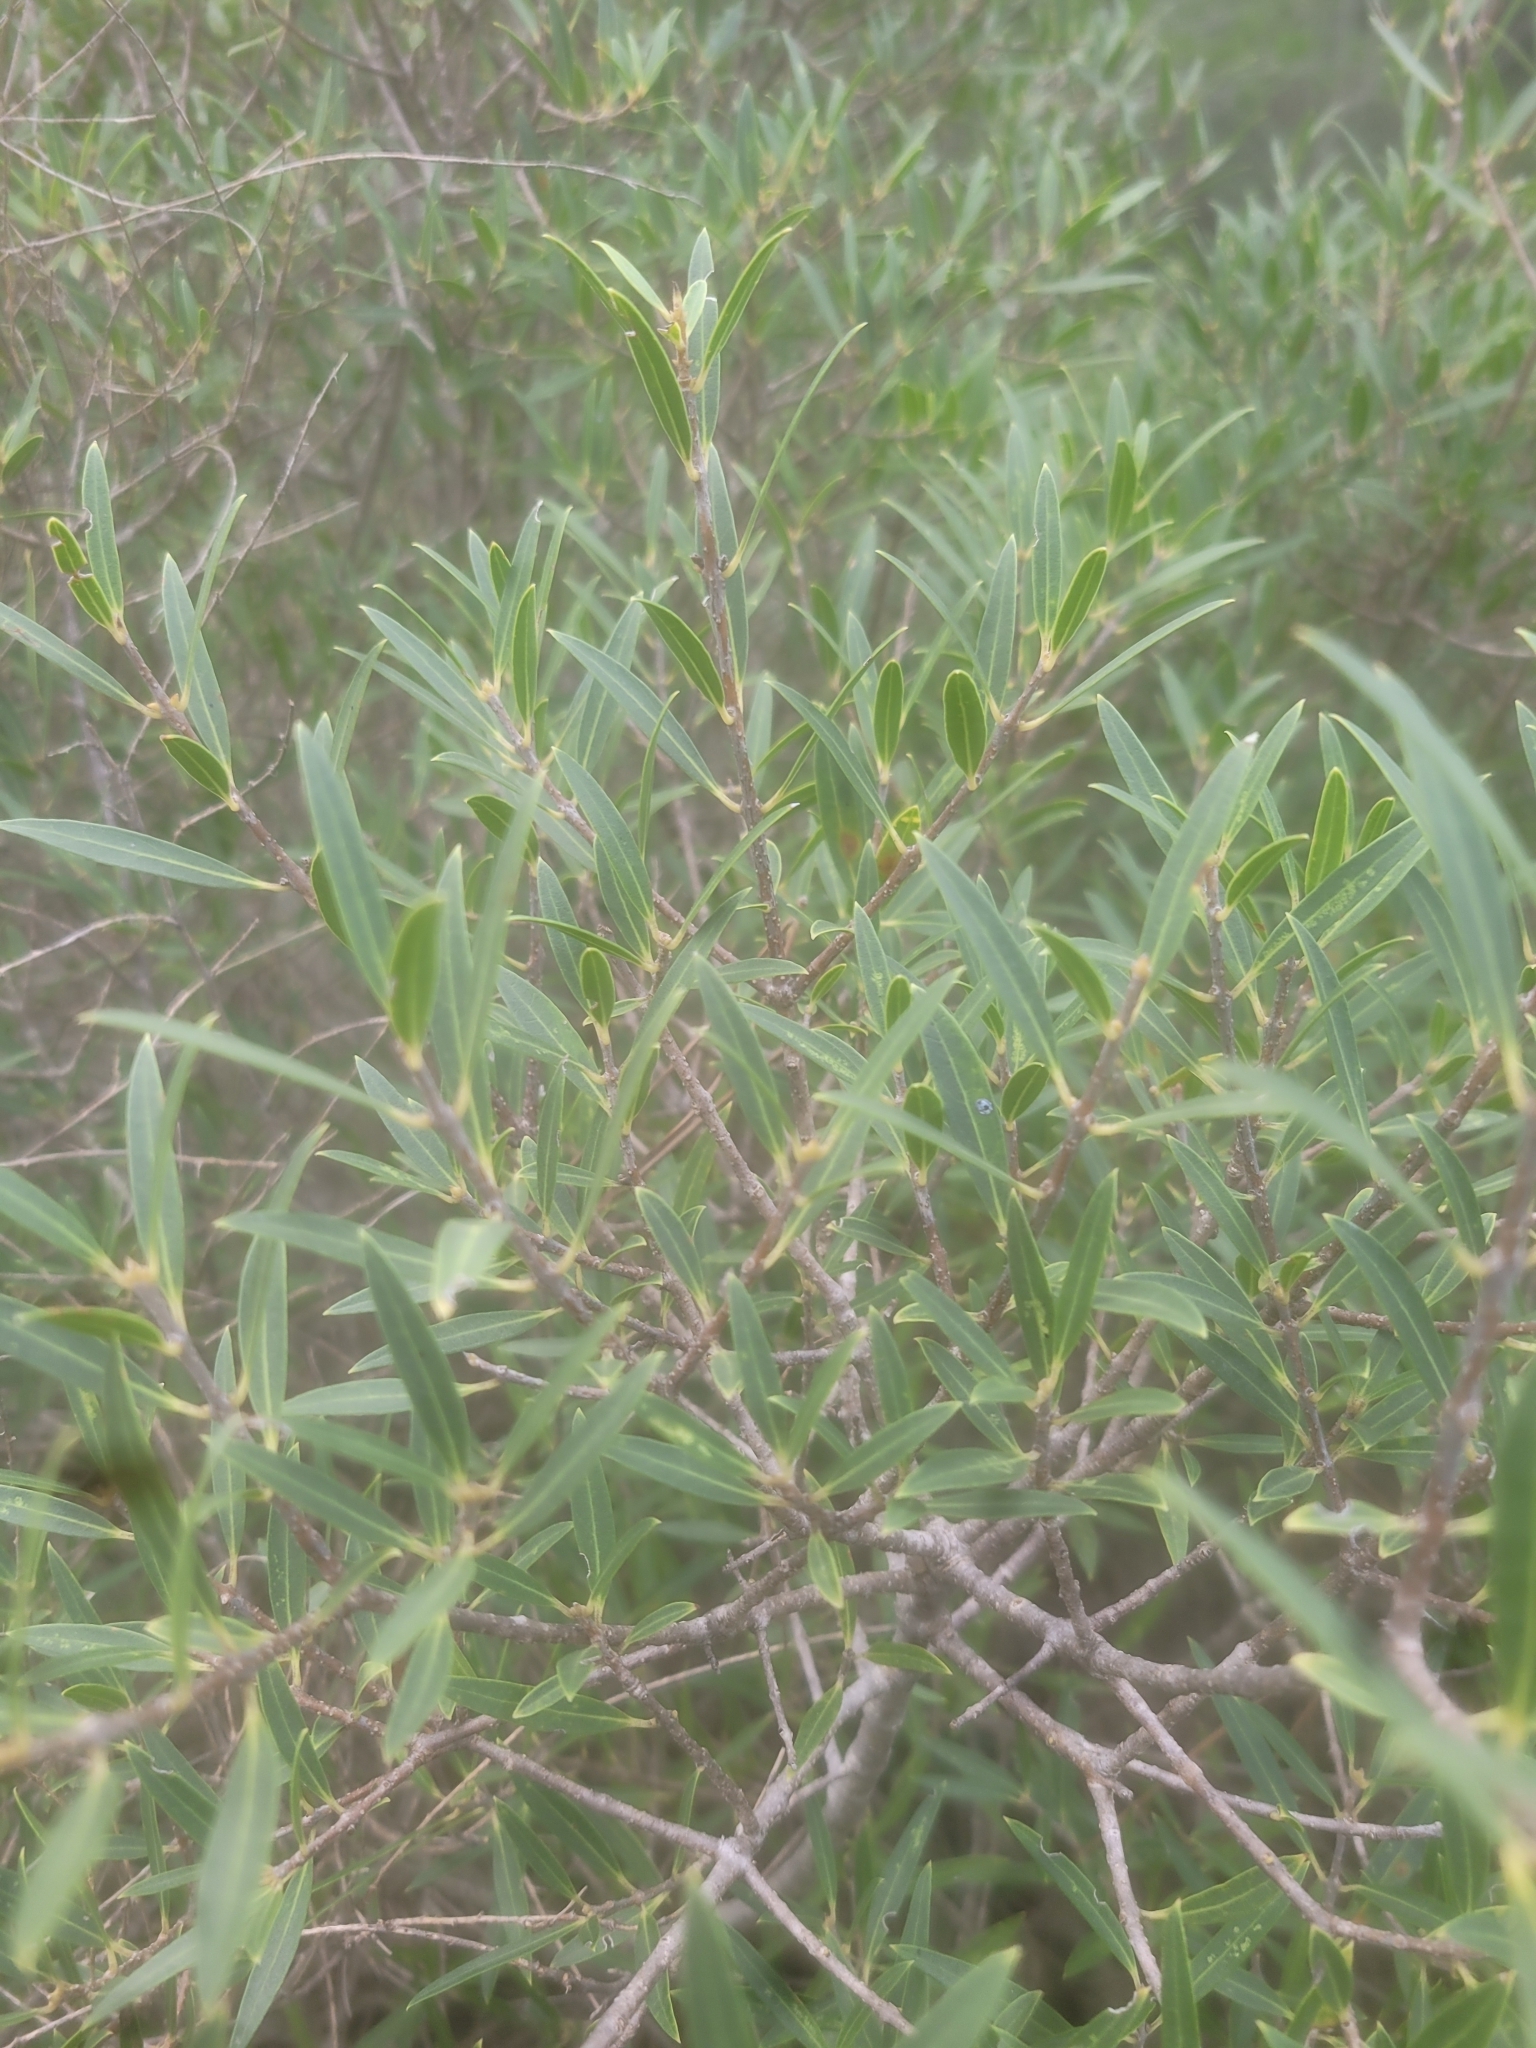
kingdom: Plantae
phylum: Tracheophyta
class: Magnoliopsida
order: Lamiales
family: Oleaceae
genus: Phillyrea
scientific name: Phillyrea angustifolia
